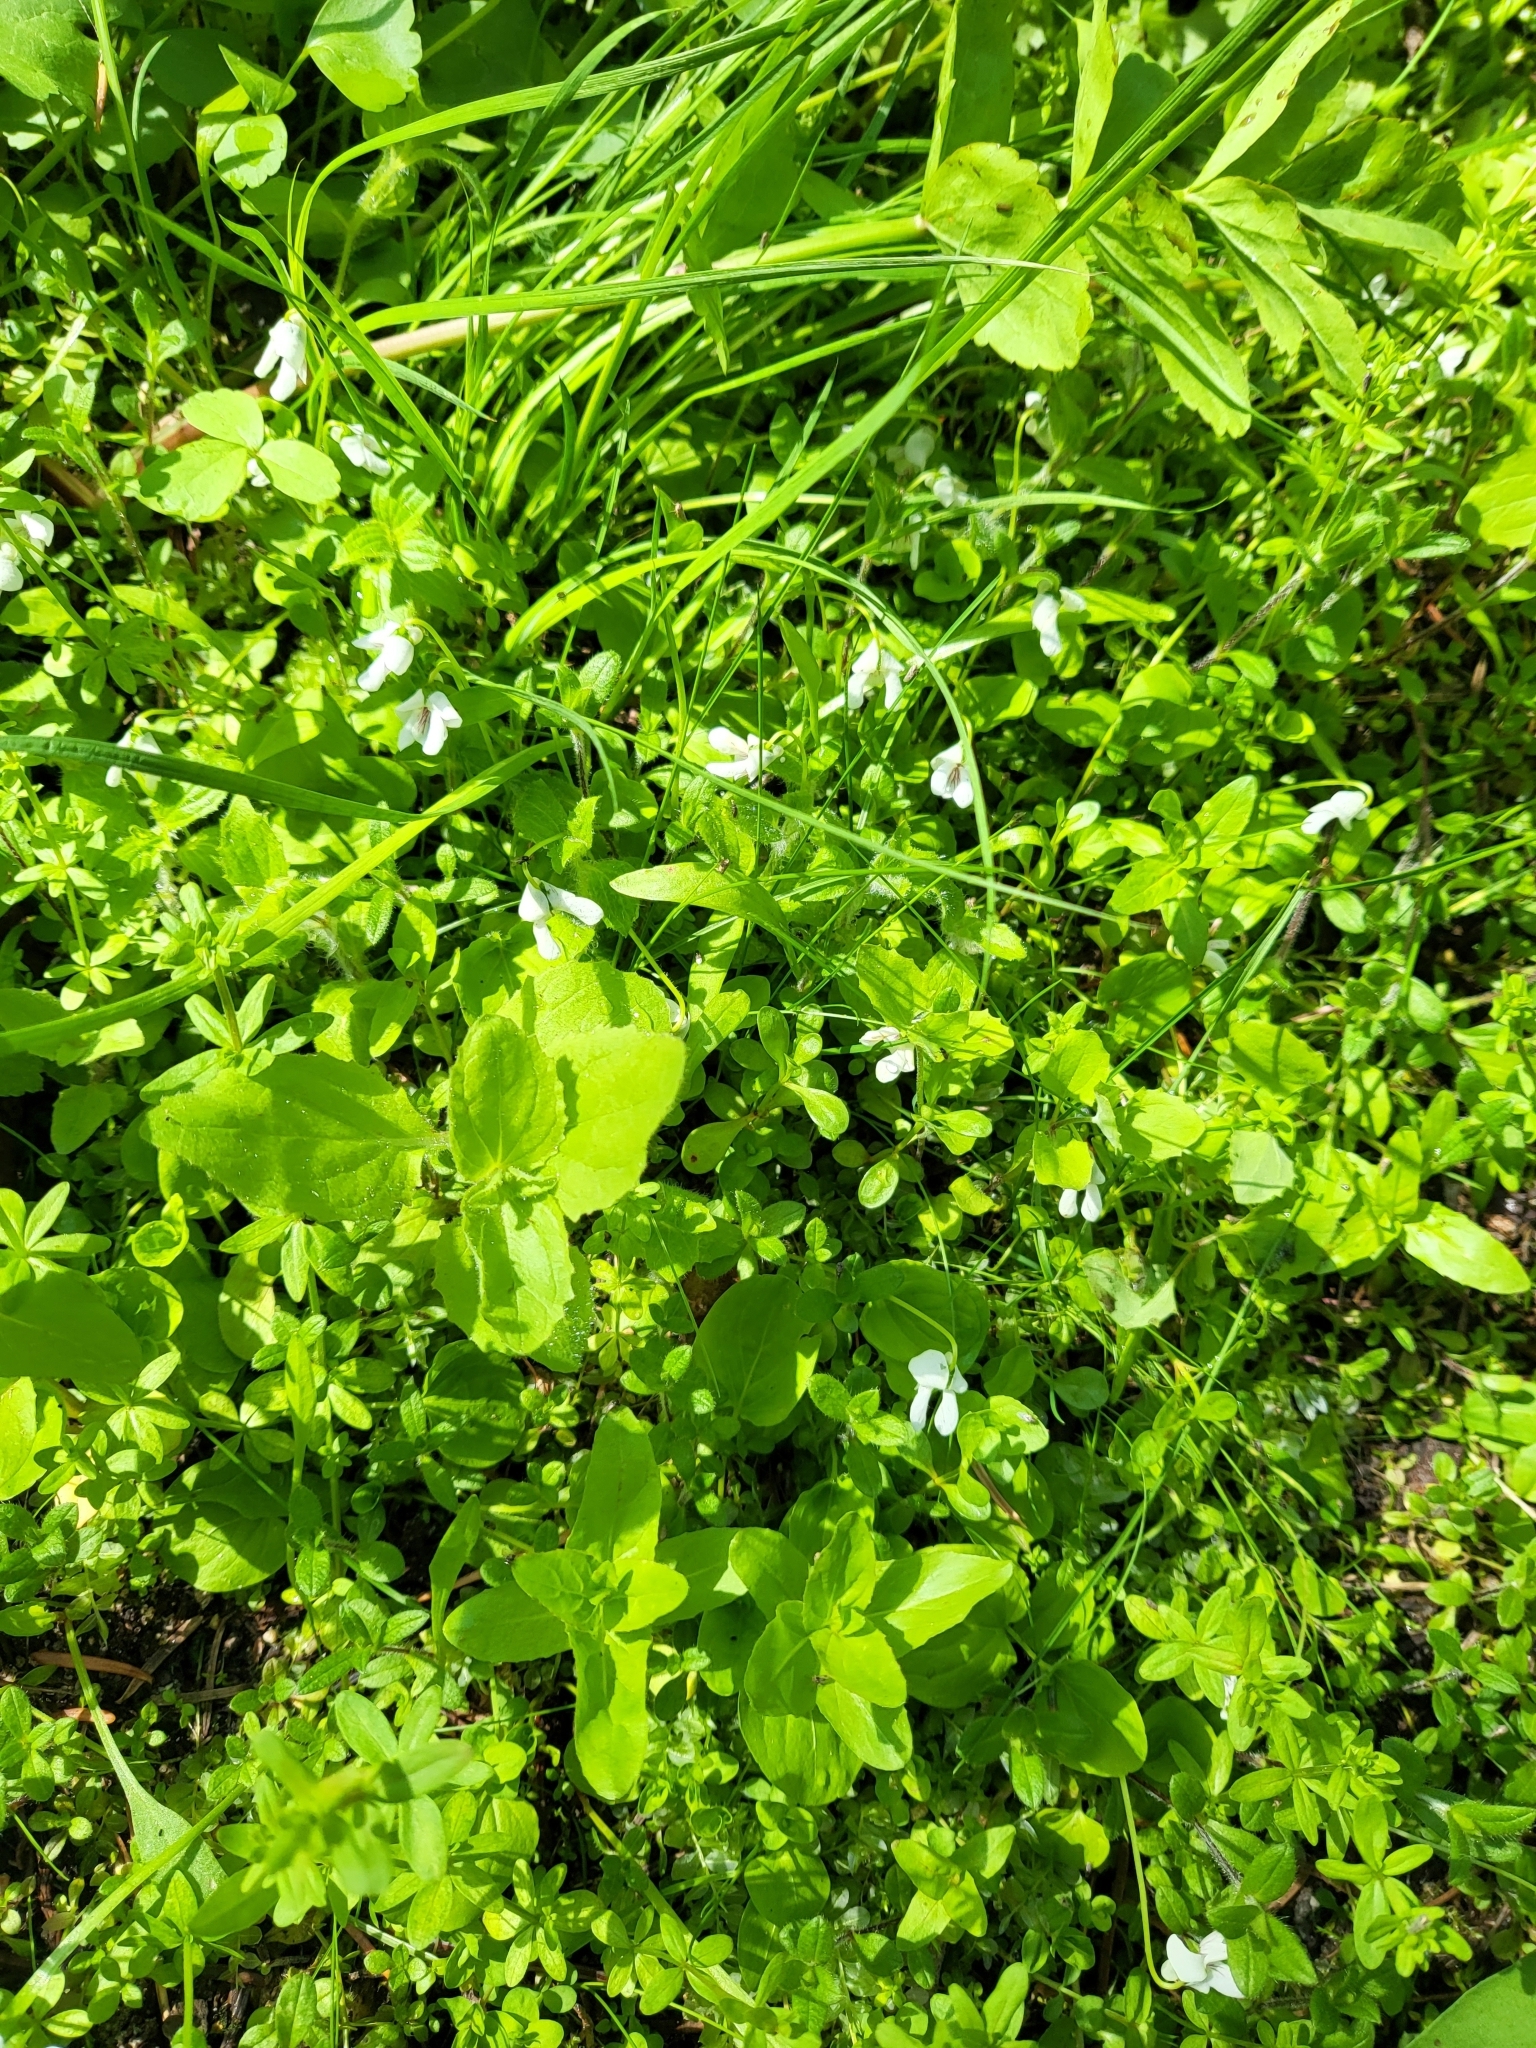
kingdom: Plantae
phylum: Tracheophyta
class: Magnoliopsida
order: Malpighiales
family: Violaceae
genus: Viola
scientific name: Viola macloskeyi
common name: Macloskey's violet
